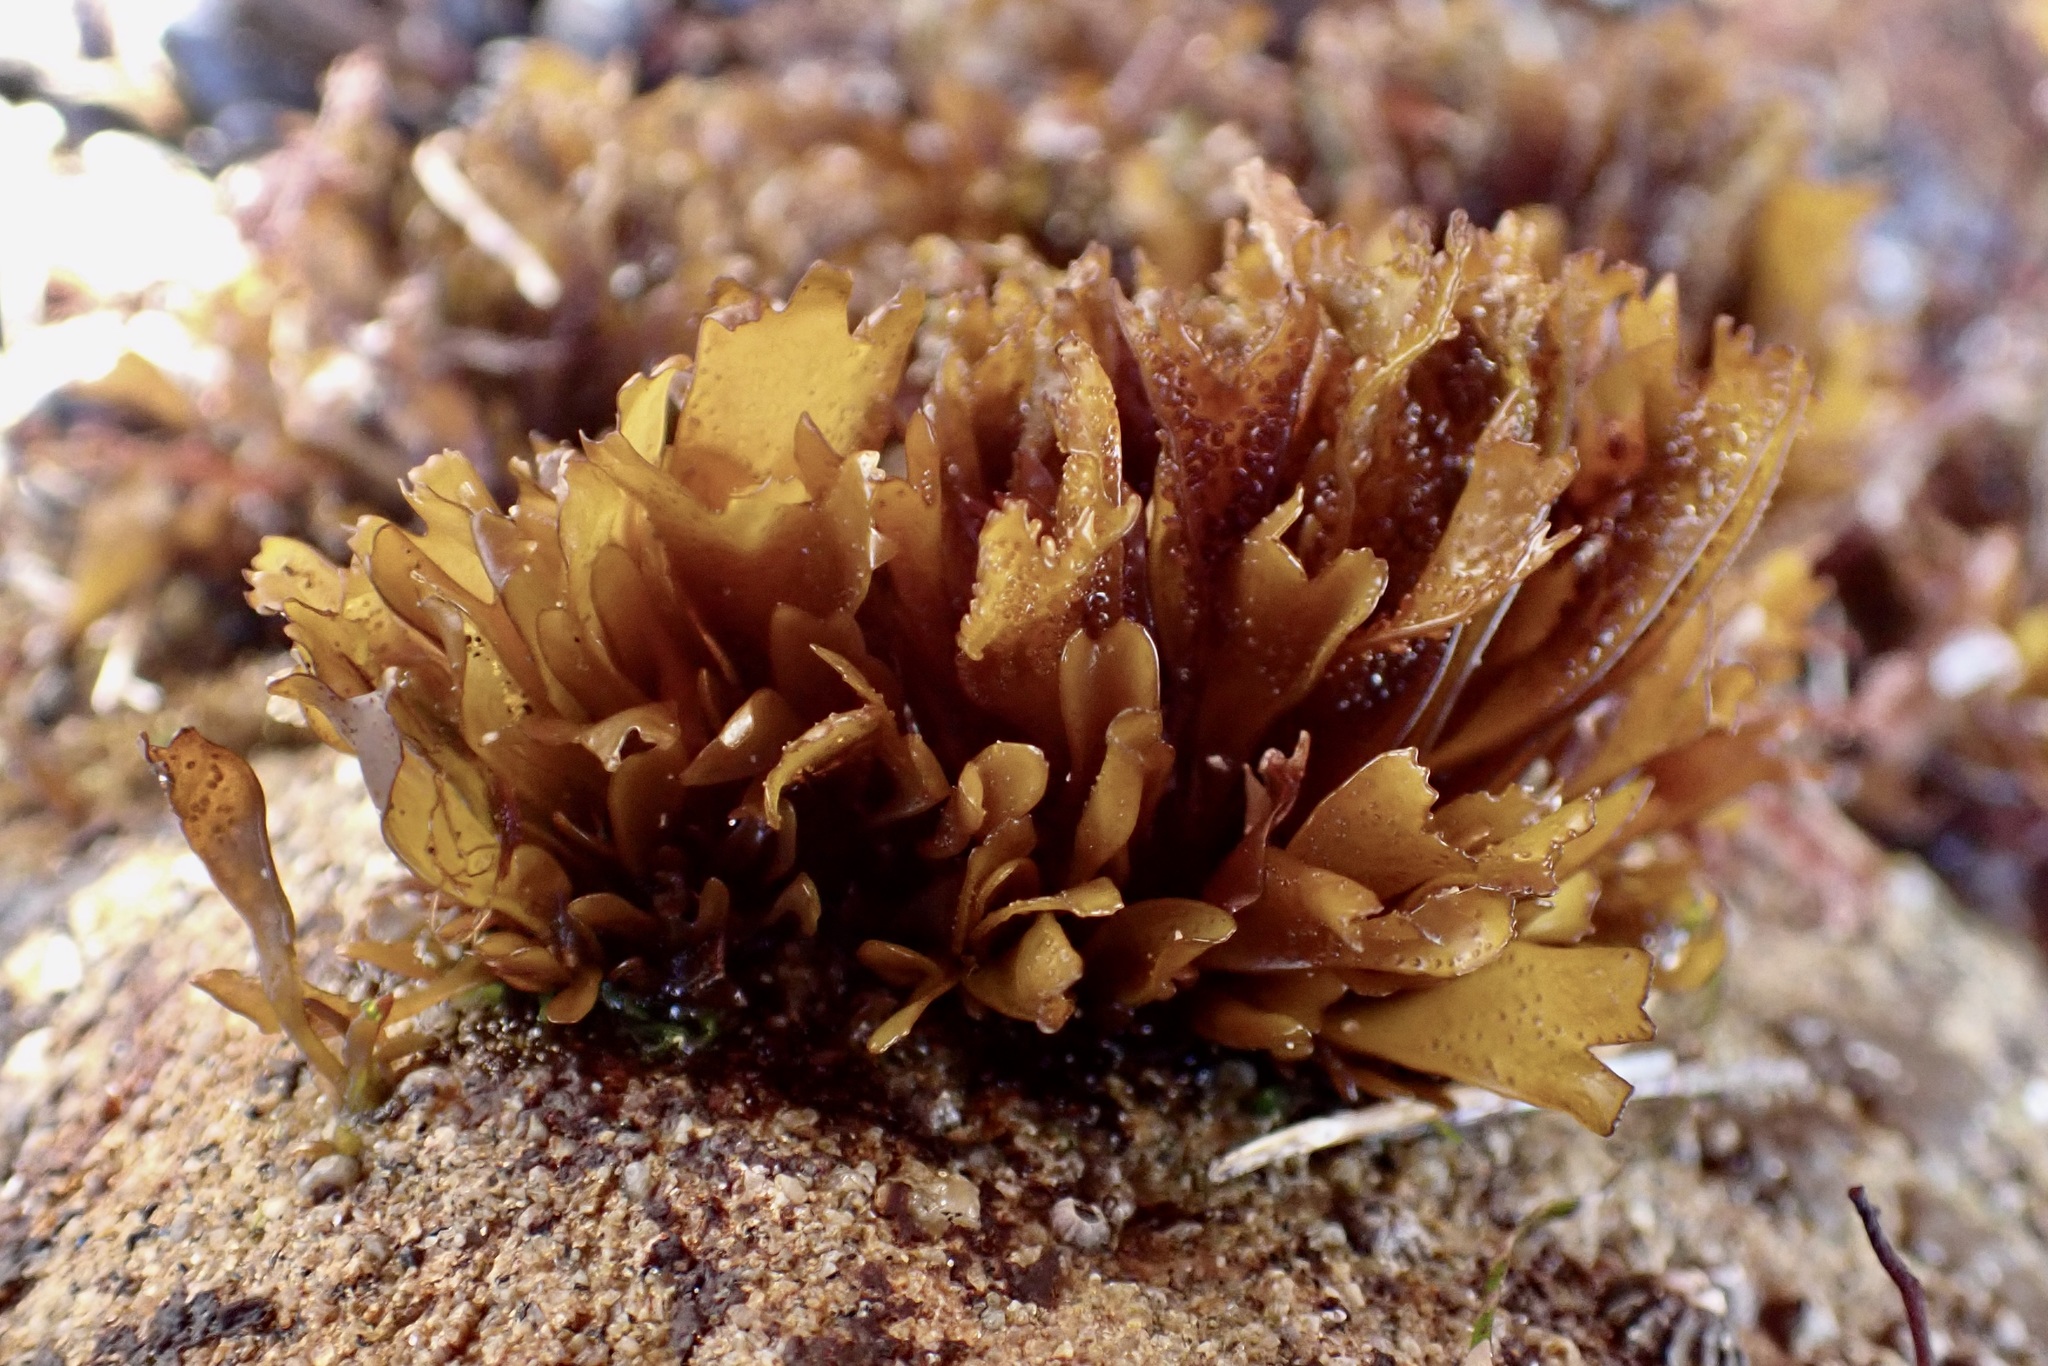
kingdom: Plantae
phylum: Rhodophyta
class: Florideophyceae
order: Gigartinales
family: Phyllophoraceae
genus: Mastocarpus
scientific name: Mastocarpus papillatus
